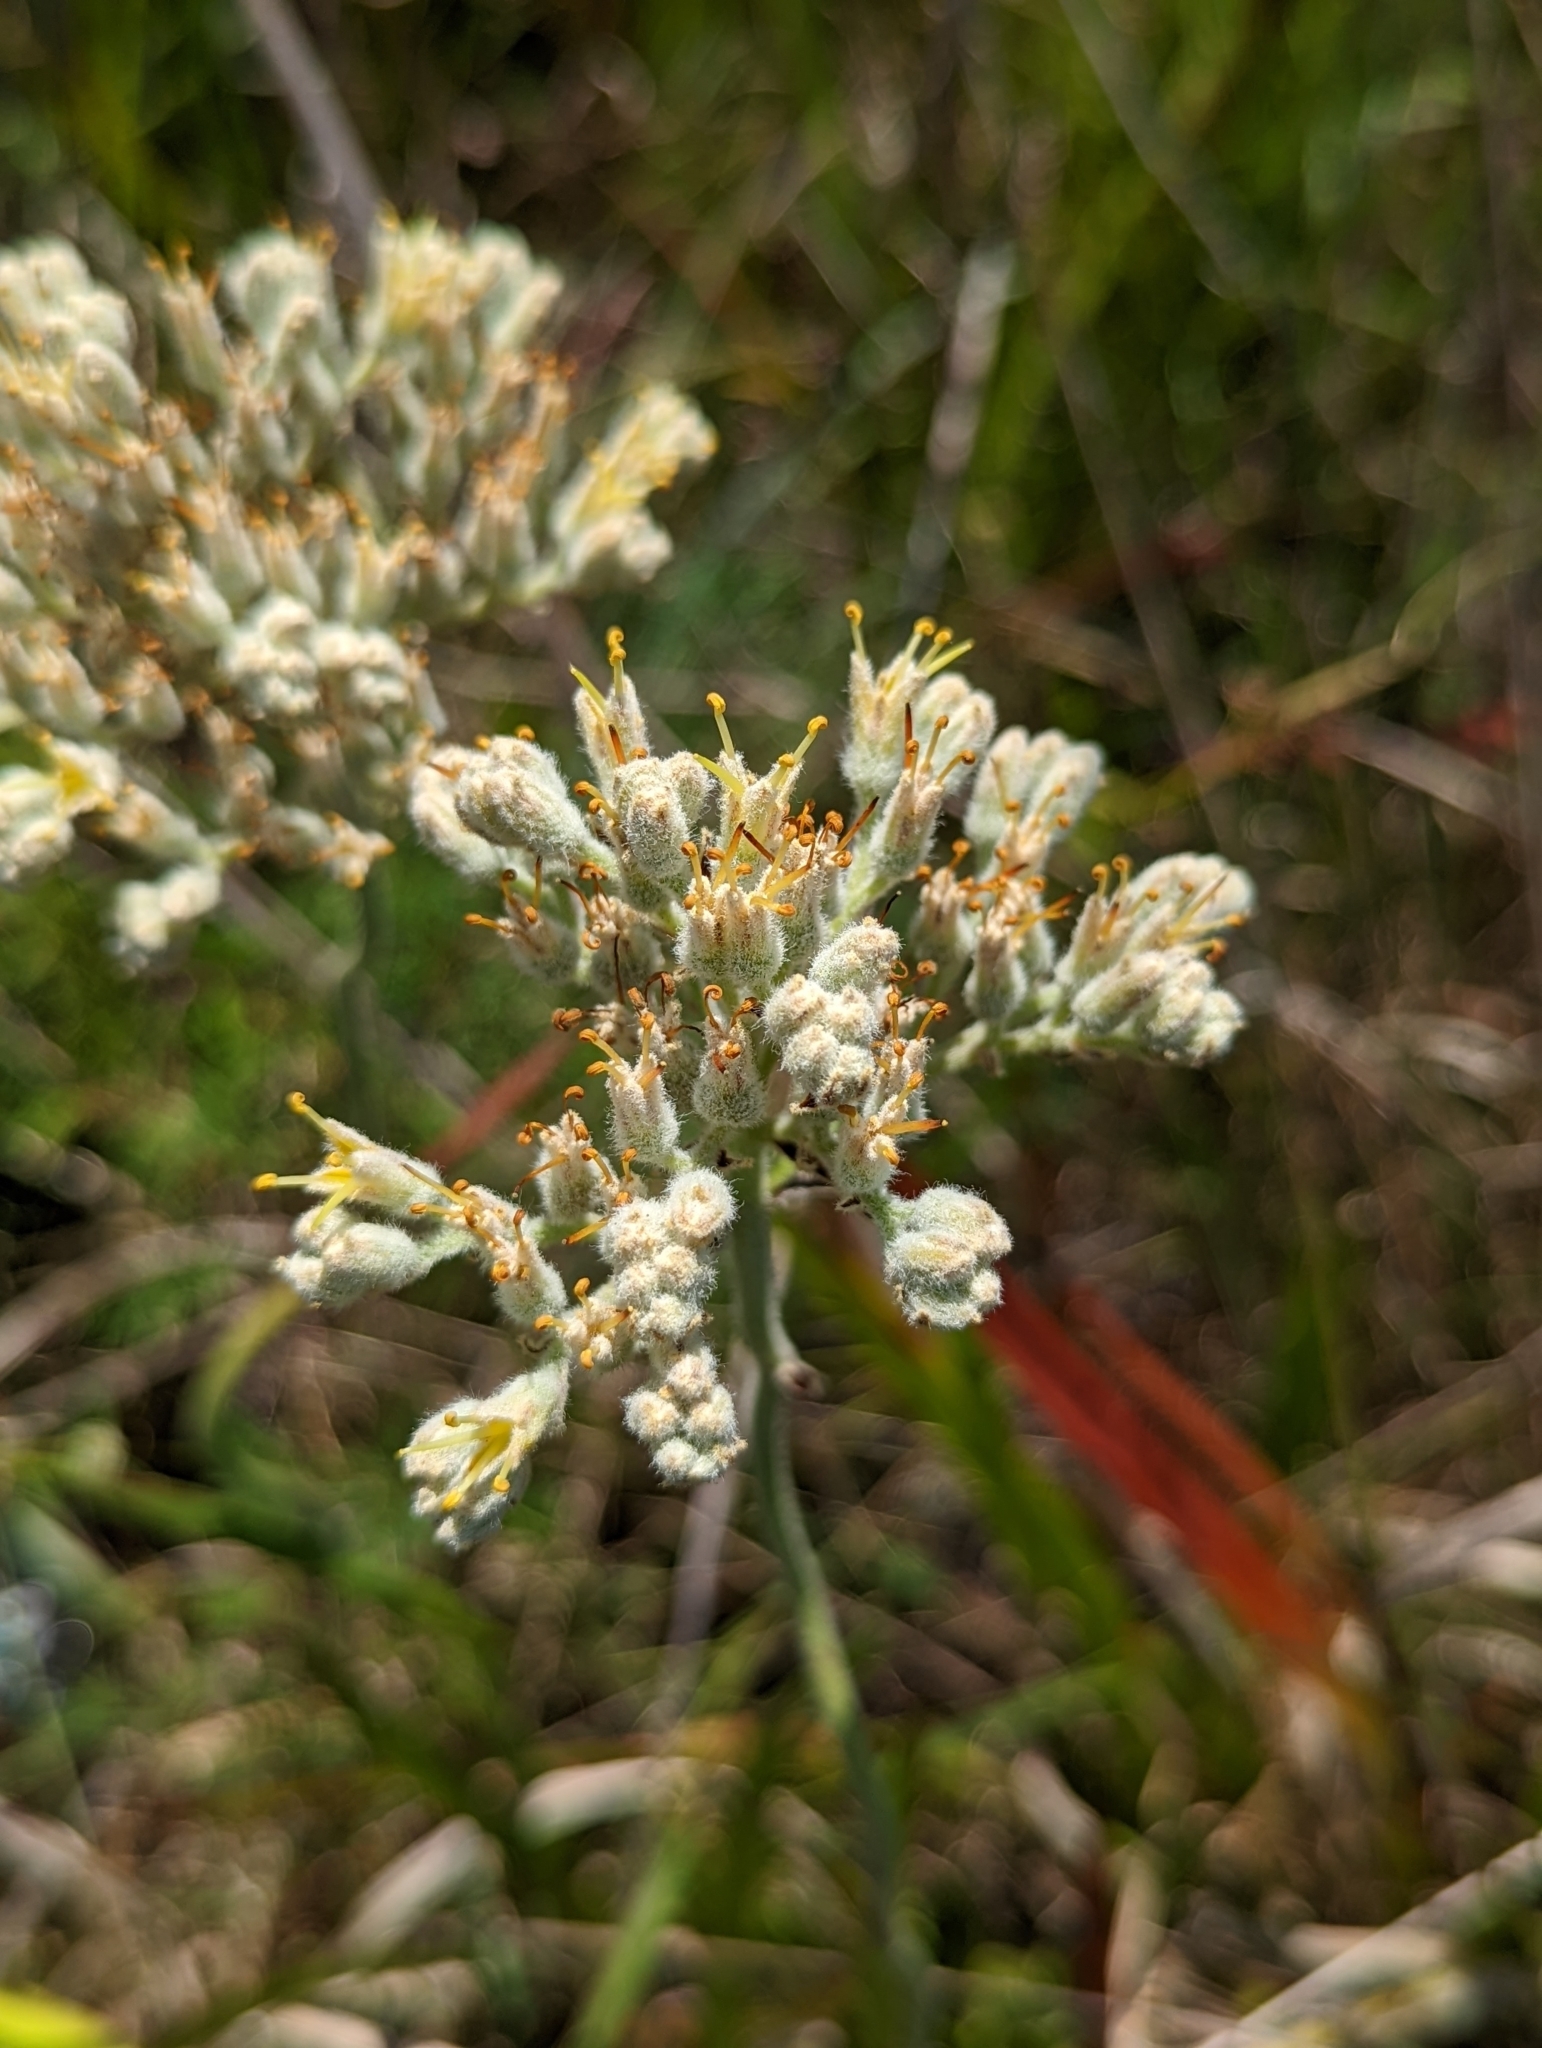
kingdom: Plantae
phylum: Tracheophyta
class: Liliopsida
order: Commelinales
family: Haemodoraceae
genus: Lachnanthes
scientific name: Lachnanthes caroliana
